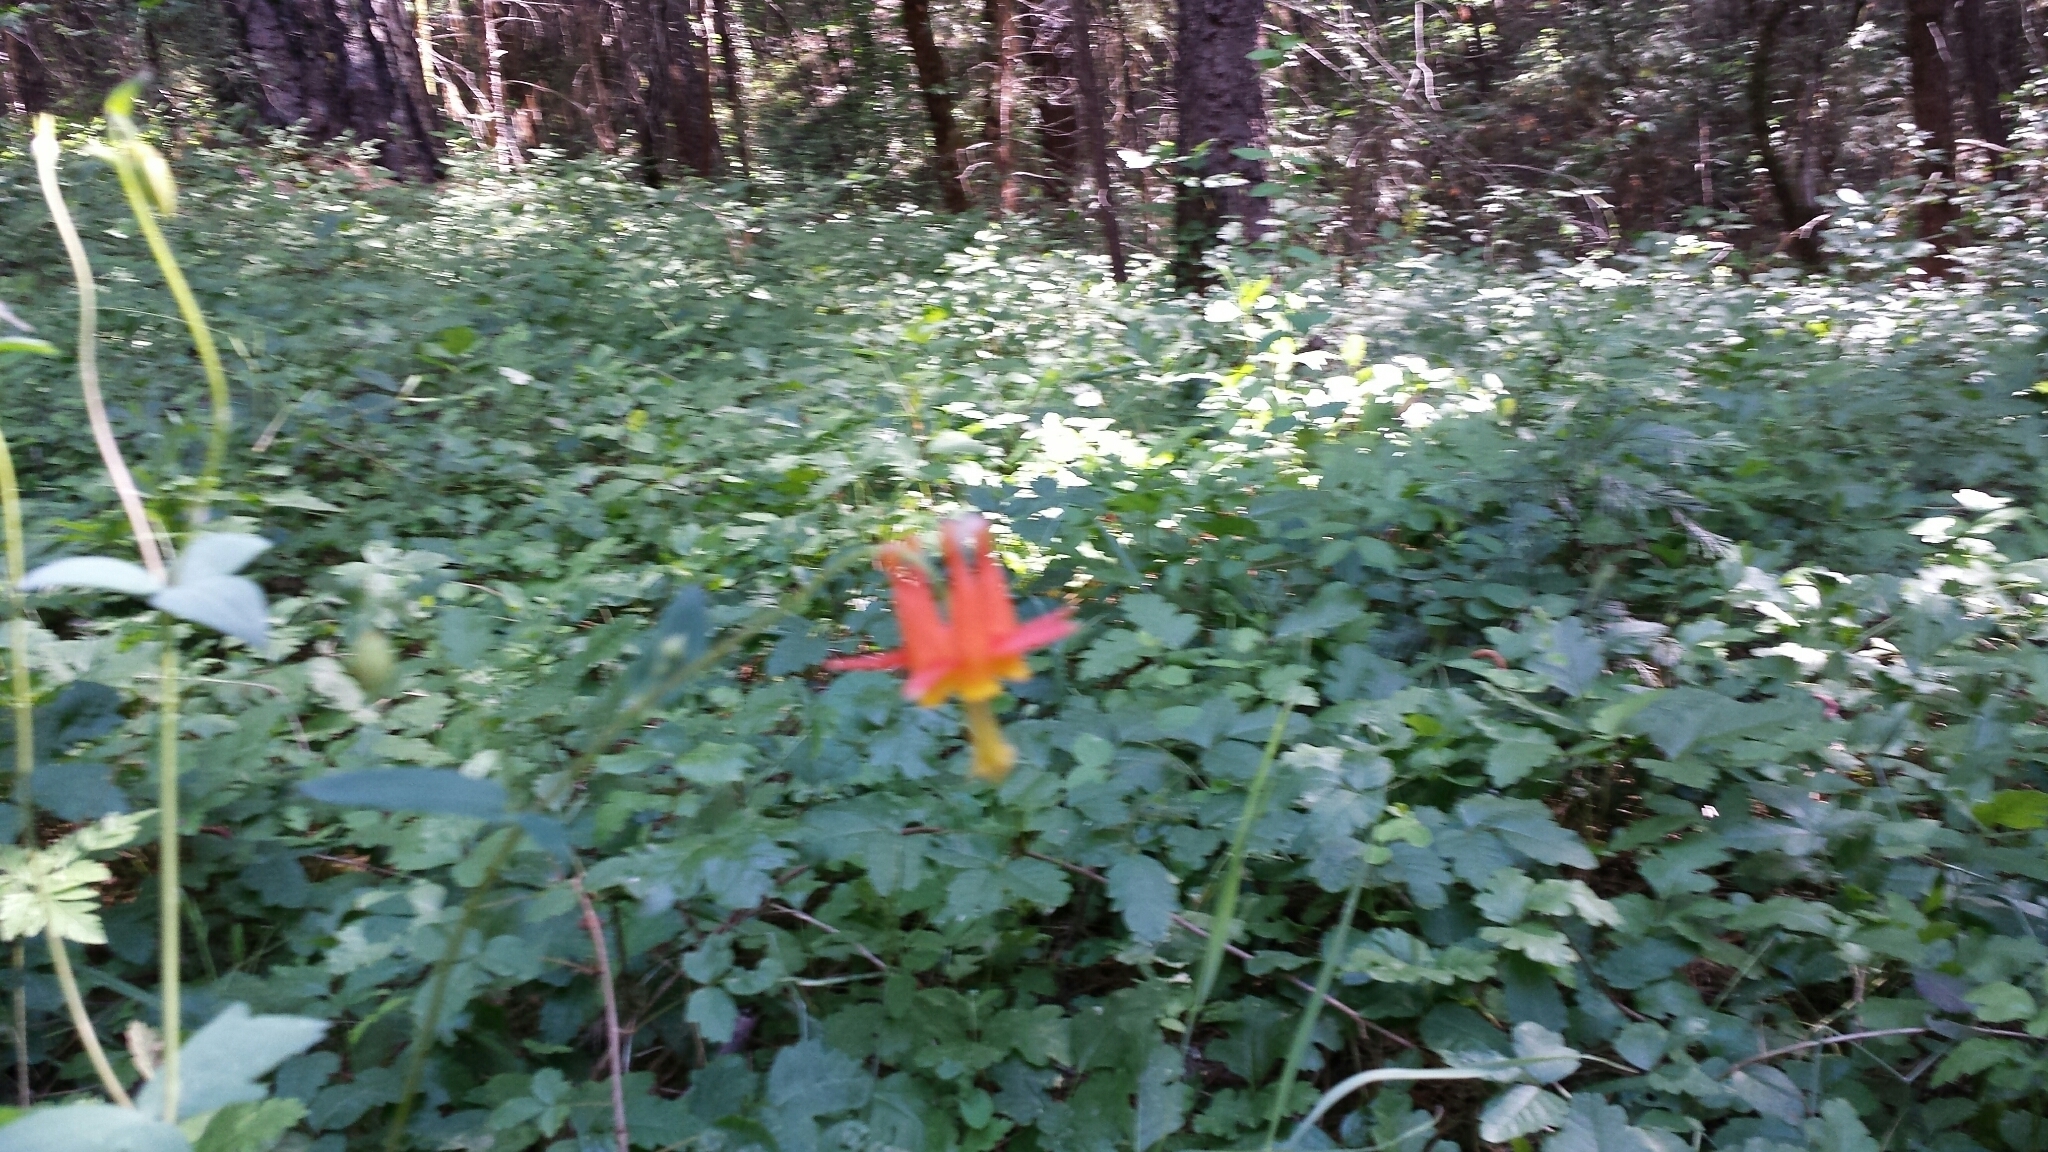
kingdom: Plantae
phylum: Tracheophyta
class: Magnoliopsida
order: Ranunculales
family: Ranunculaceae
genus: Aquilegia
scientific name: Aquilegia formosa
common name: Sitka columbine
